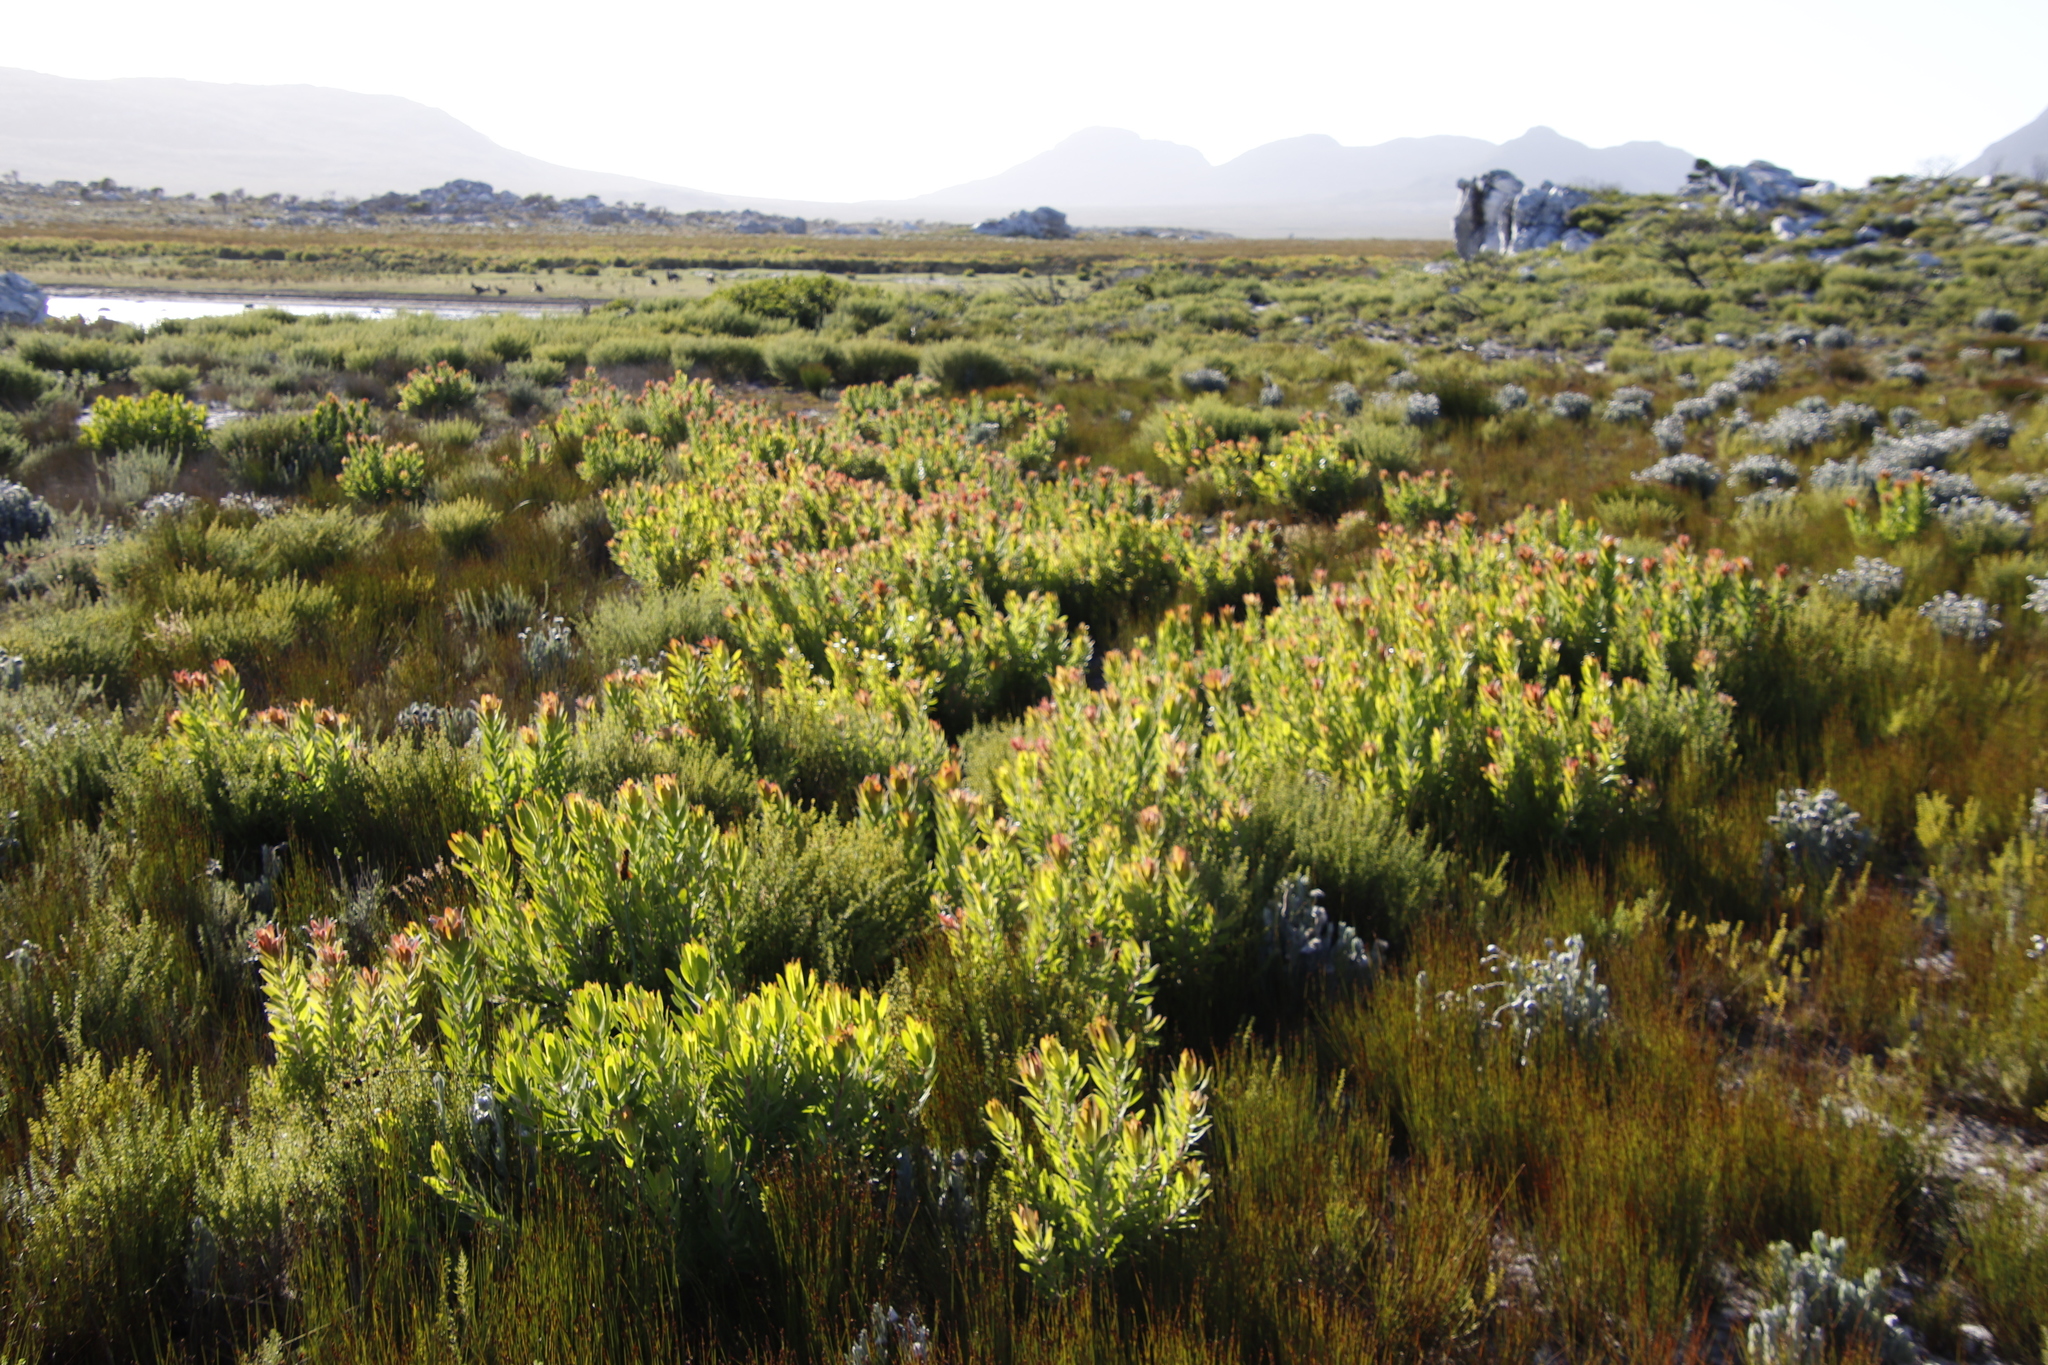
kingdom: Plantae
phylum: Tracheophyta
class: Magnoliopsida
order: Proteales
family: Proteaceae
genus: Leucadendron
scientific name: Leucadendron laureolum
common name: Golden sunshinebush
